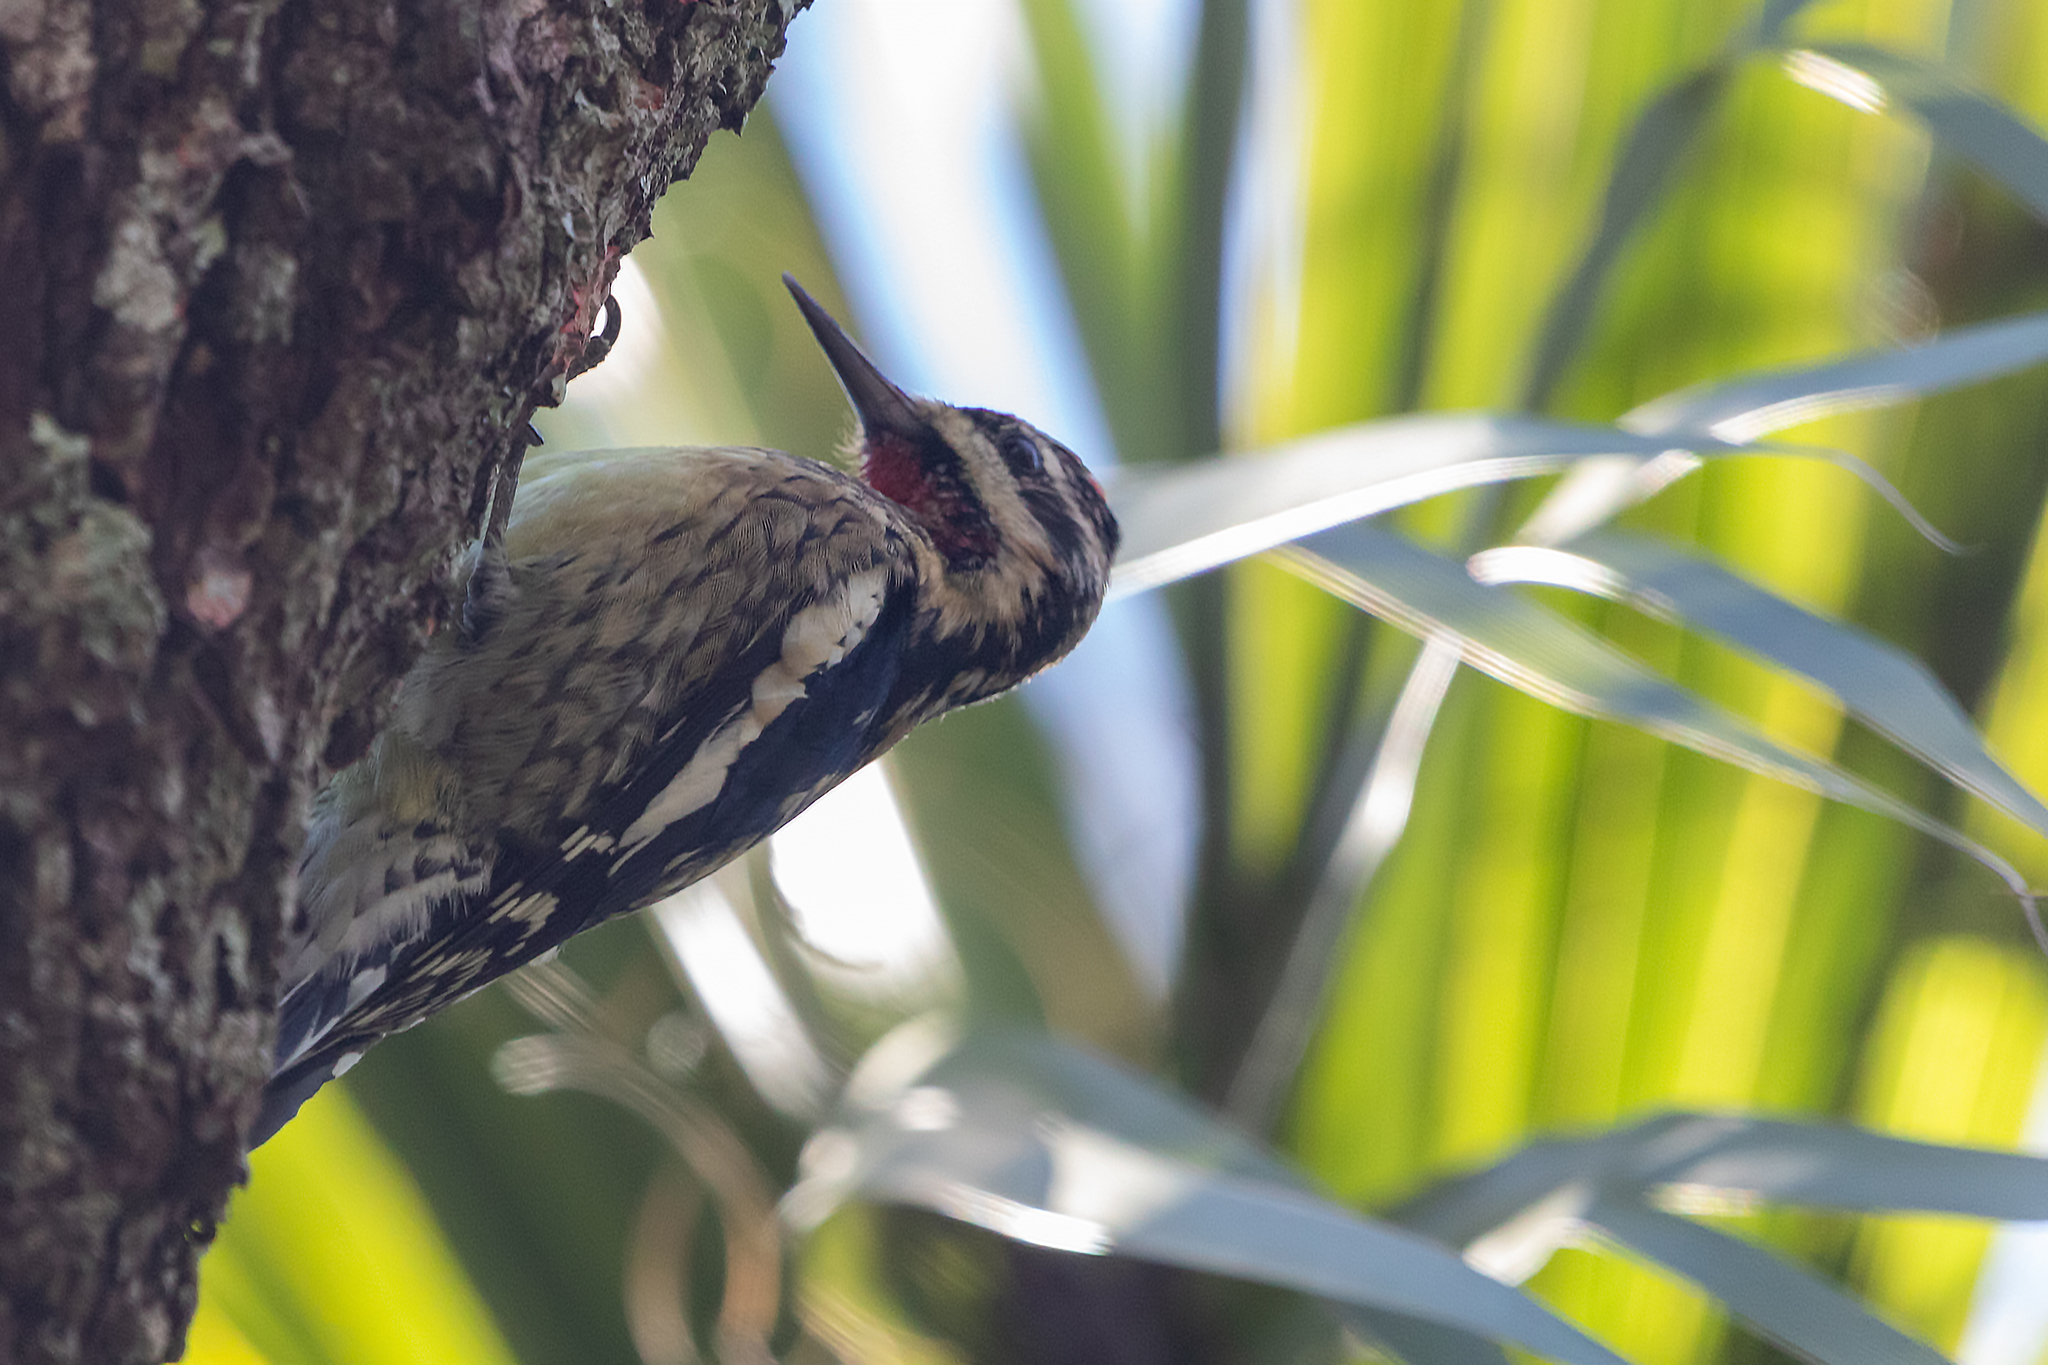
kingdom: Animalia
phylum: Chordata
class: Aves
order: Piciformes
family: Picidae
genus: Sphyrapicus
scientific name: Sphyrapicus varius
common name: Yellow-bellied sapsucker
